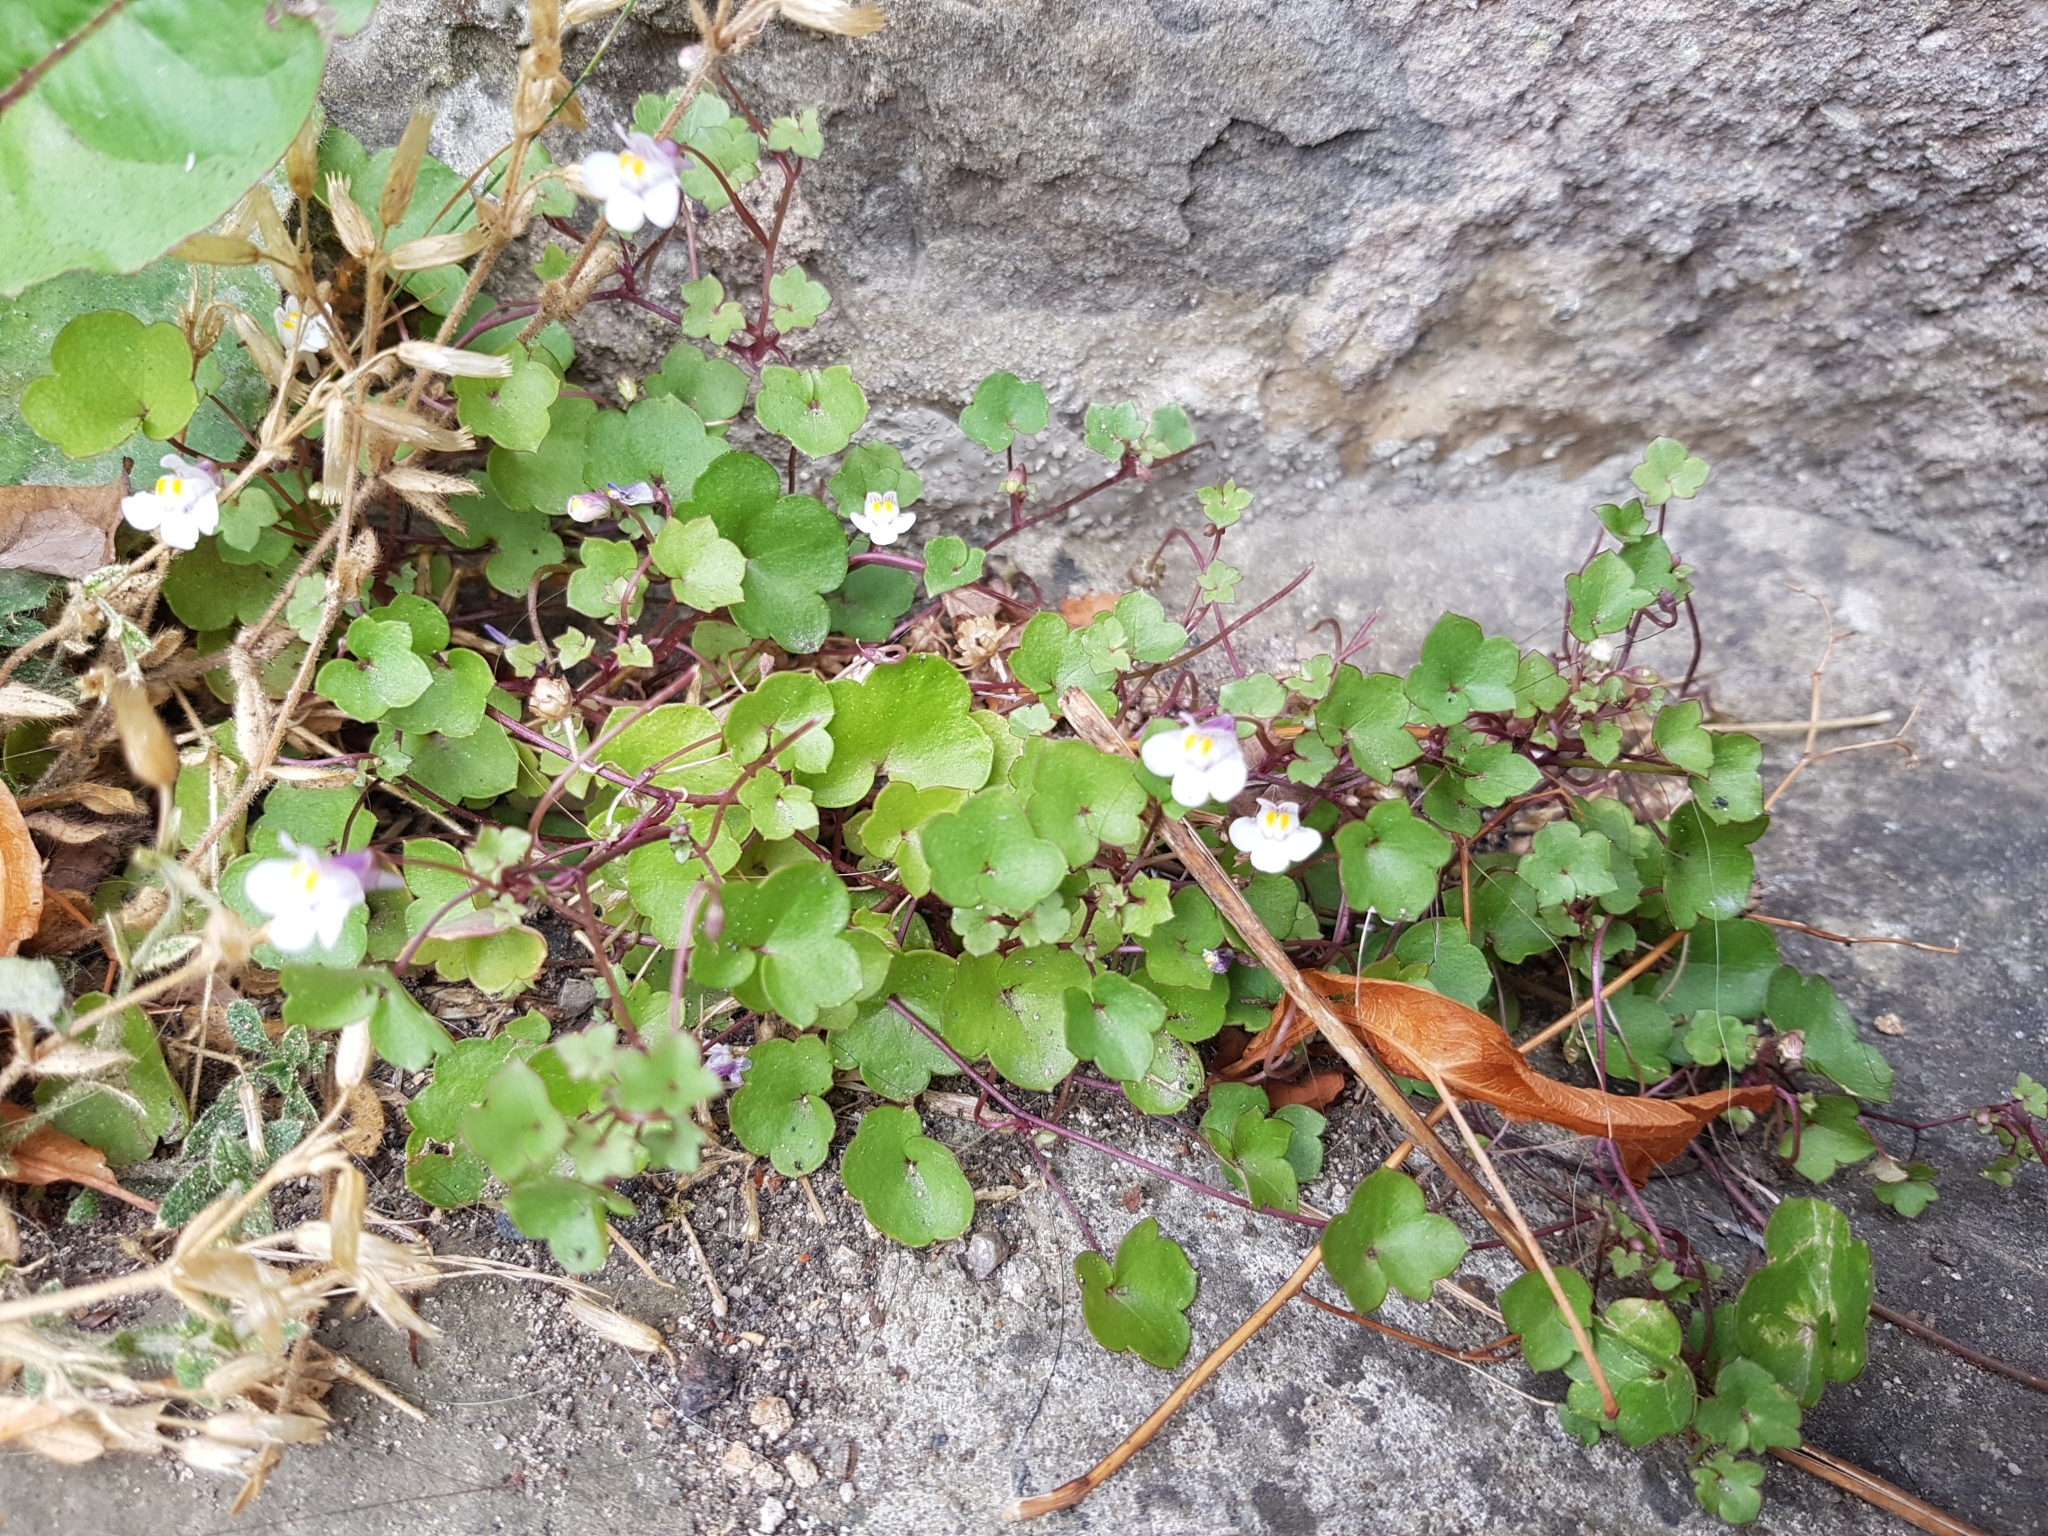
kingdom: Plantae
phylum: Tracheophyta
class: Magnoliopsida
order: Lamiales
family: Plantaginaceae
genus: Cymbalaria
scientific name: Cymbalaria muralis
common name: Ivy-leaved toadflax
